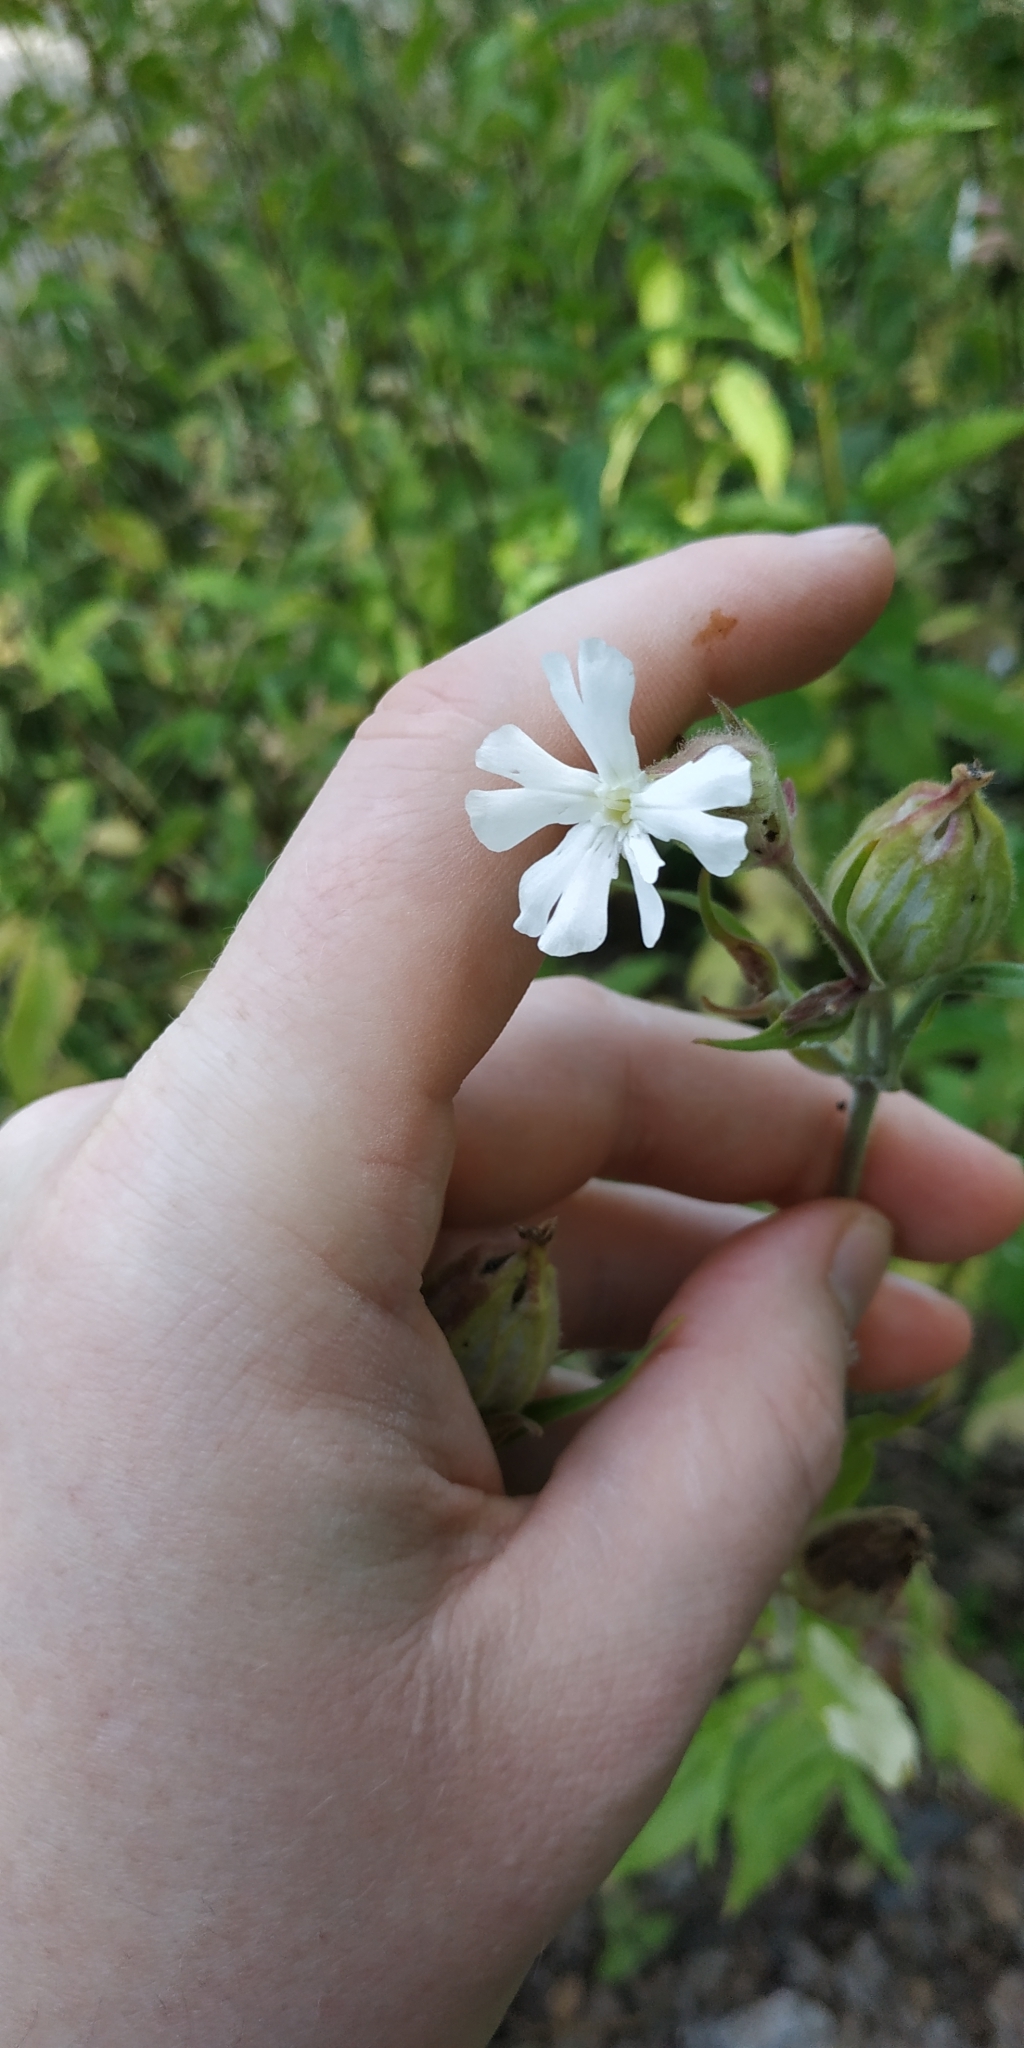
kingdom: Plantae
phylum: Tracheophyta
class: Magnoliopsida
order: Caryophyllales
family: Caryophyllaceae
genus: Silene
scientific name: Silene latifolia
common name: White campion
